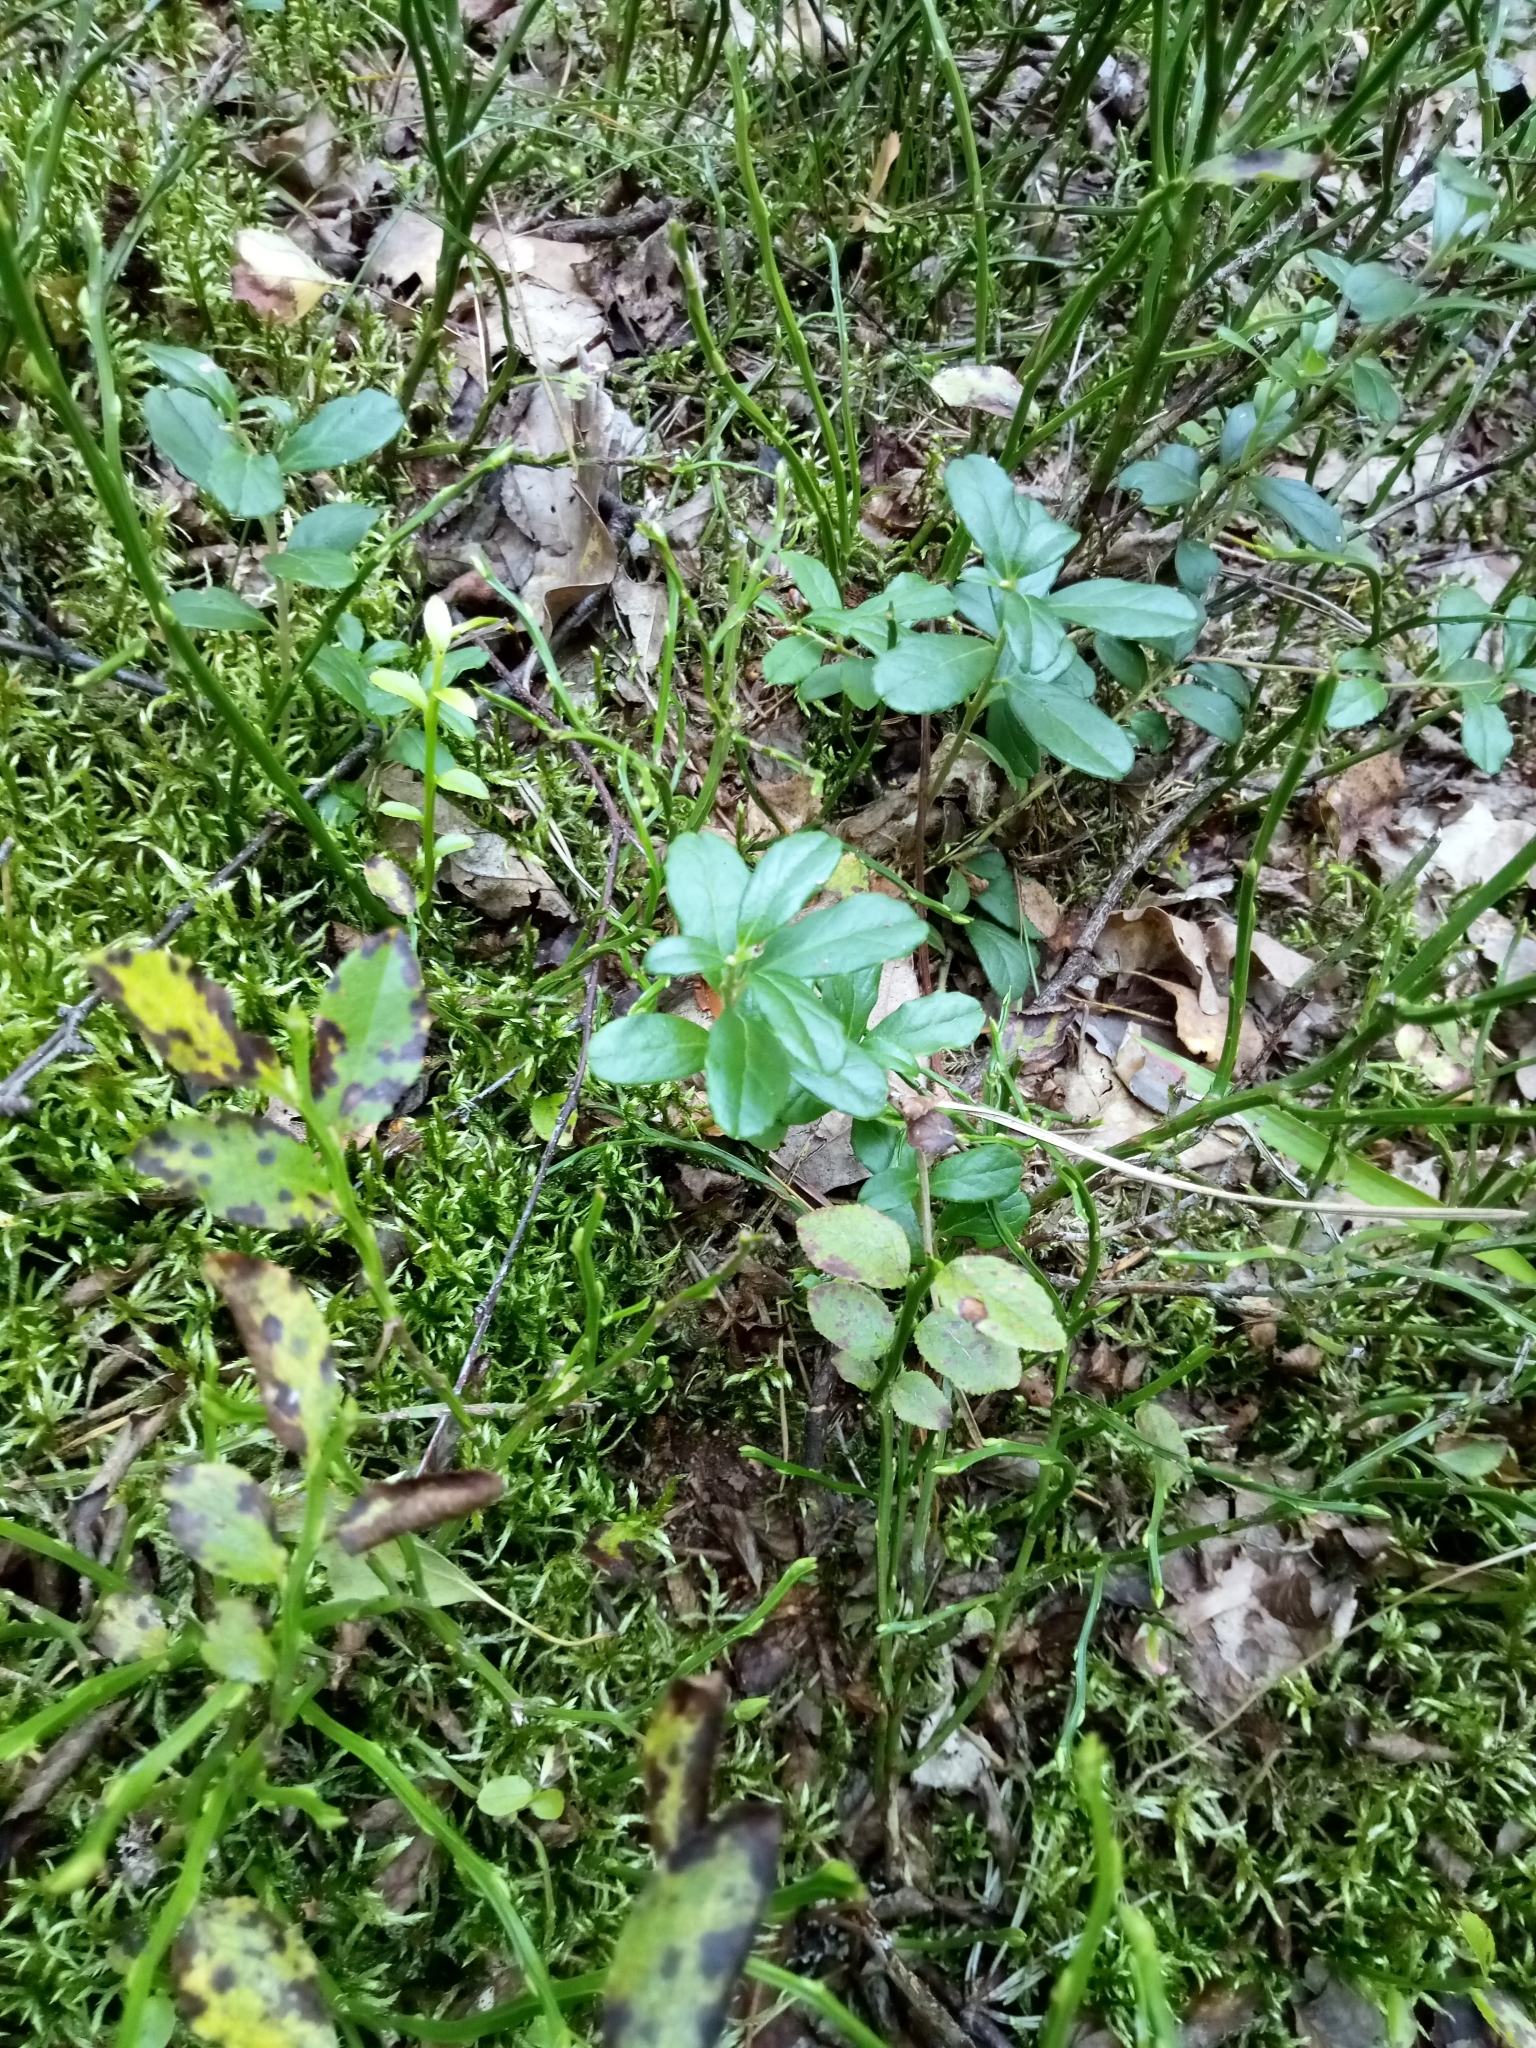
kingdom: Plantae
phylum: Tracheophyta
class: Magnoliopsida
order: Ericales
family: Ericaceae
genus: Vaccinium
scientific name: Vaccinium vitis-idaea
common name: Cowberry
